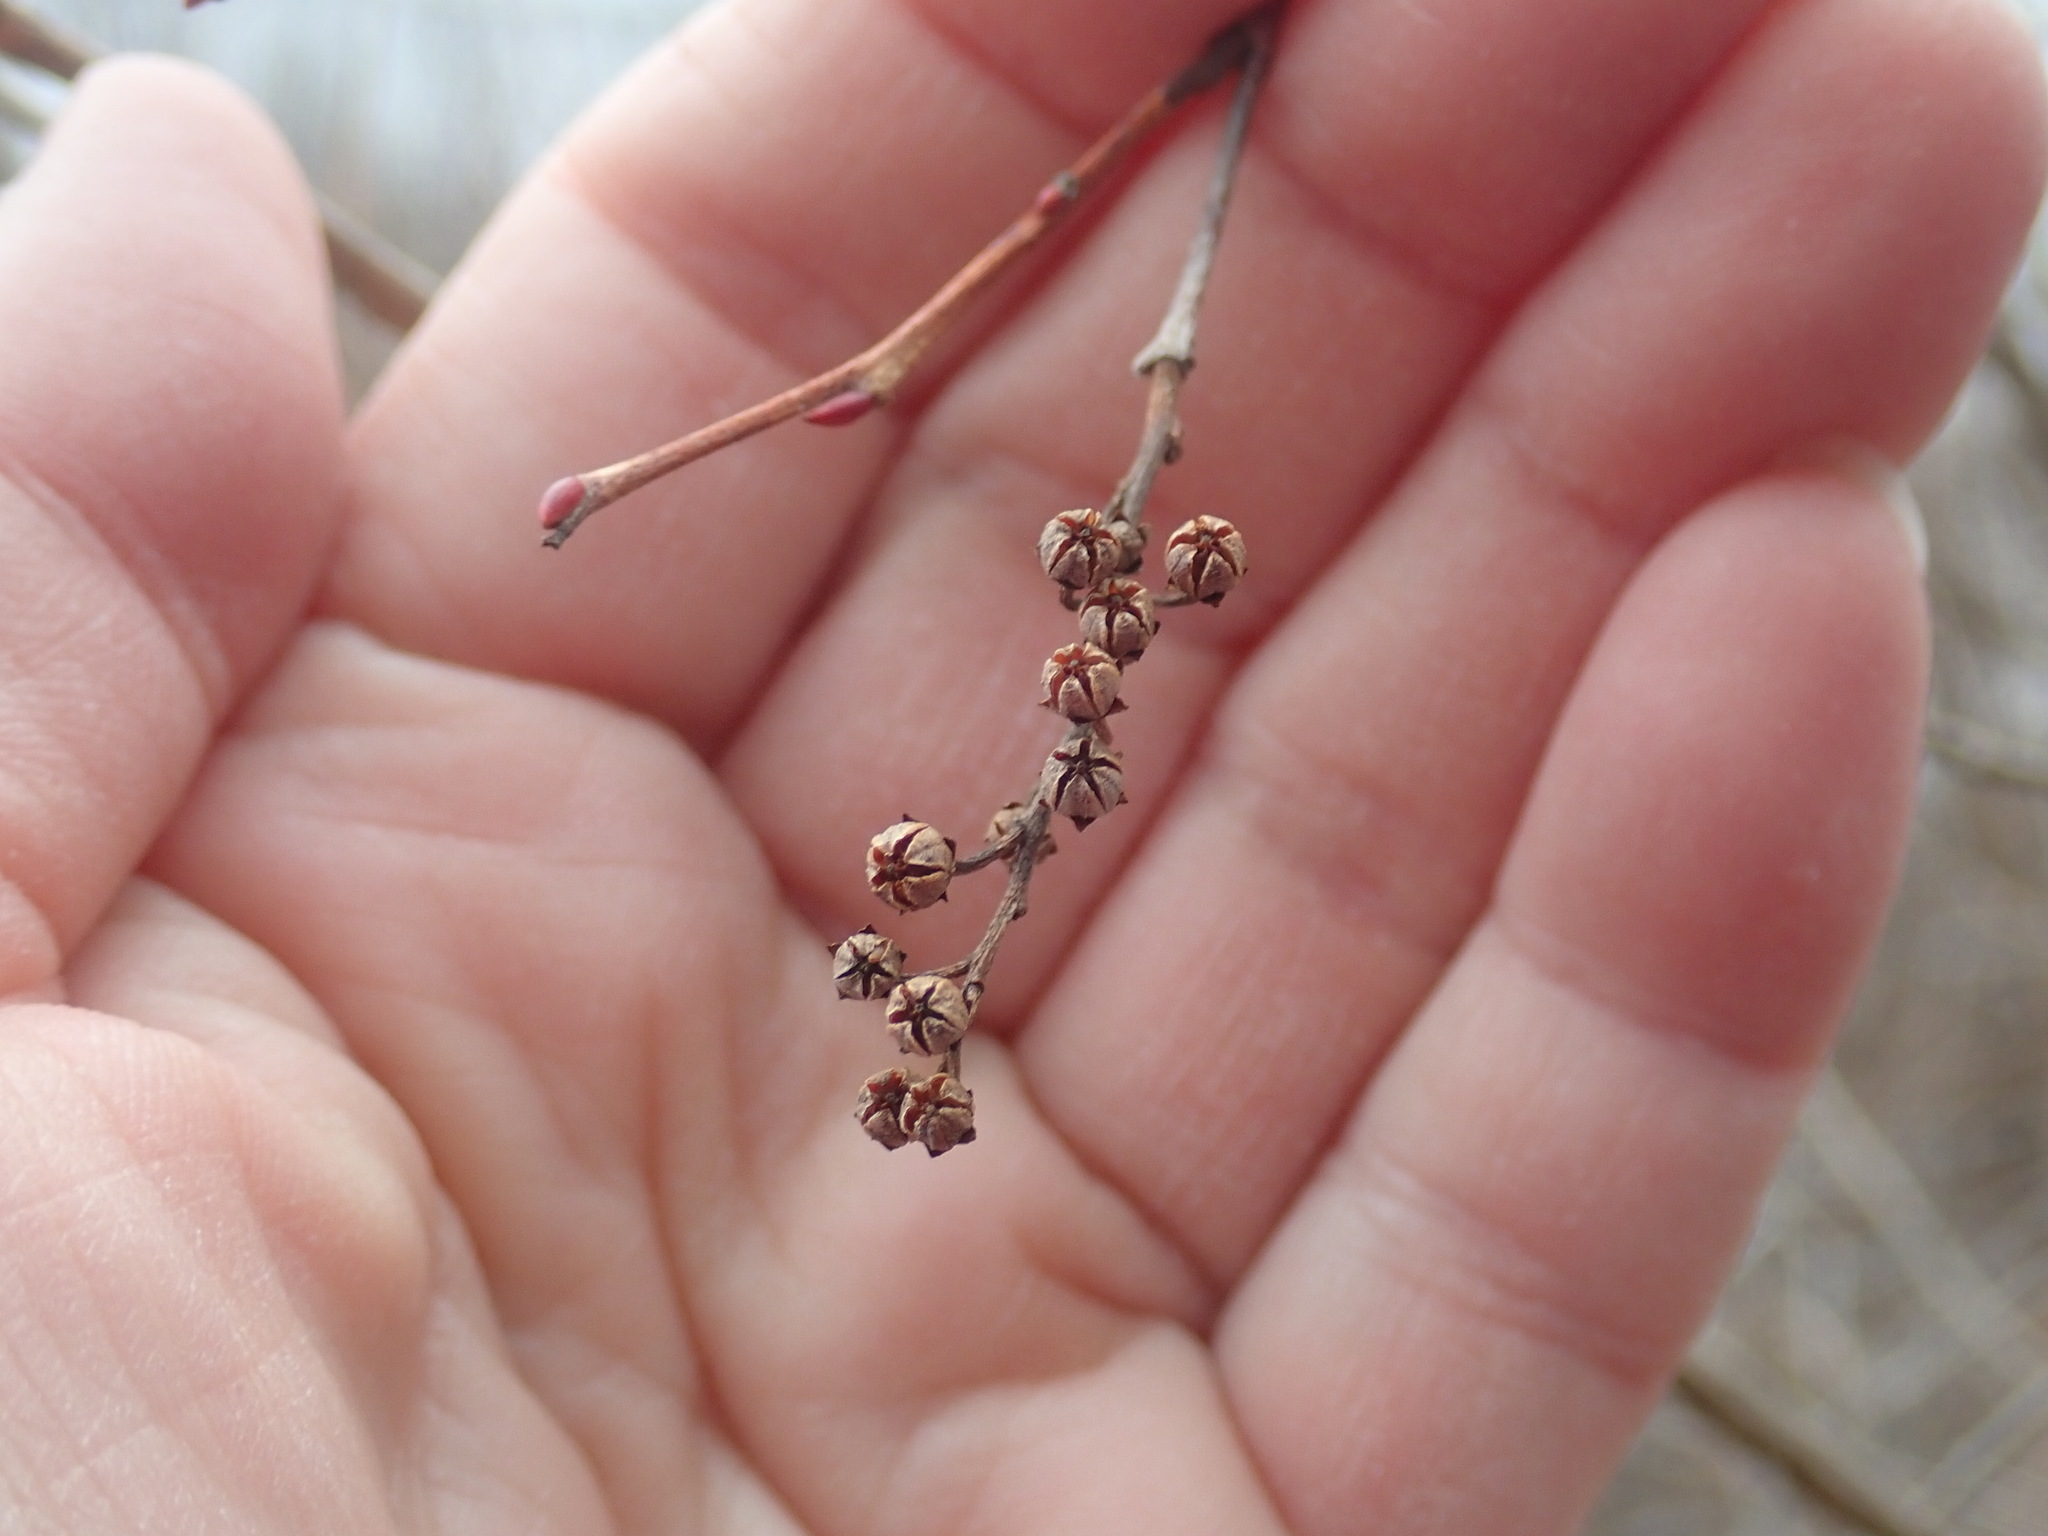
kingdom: Plantae
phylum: Tracheophyta
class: Magnoliopsida
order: Ericales
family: Ericaceae
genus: Lyonia
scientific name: Lyonia ligustrina
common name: Maleberry
